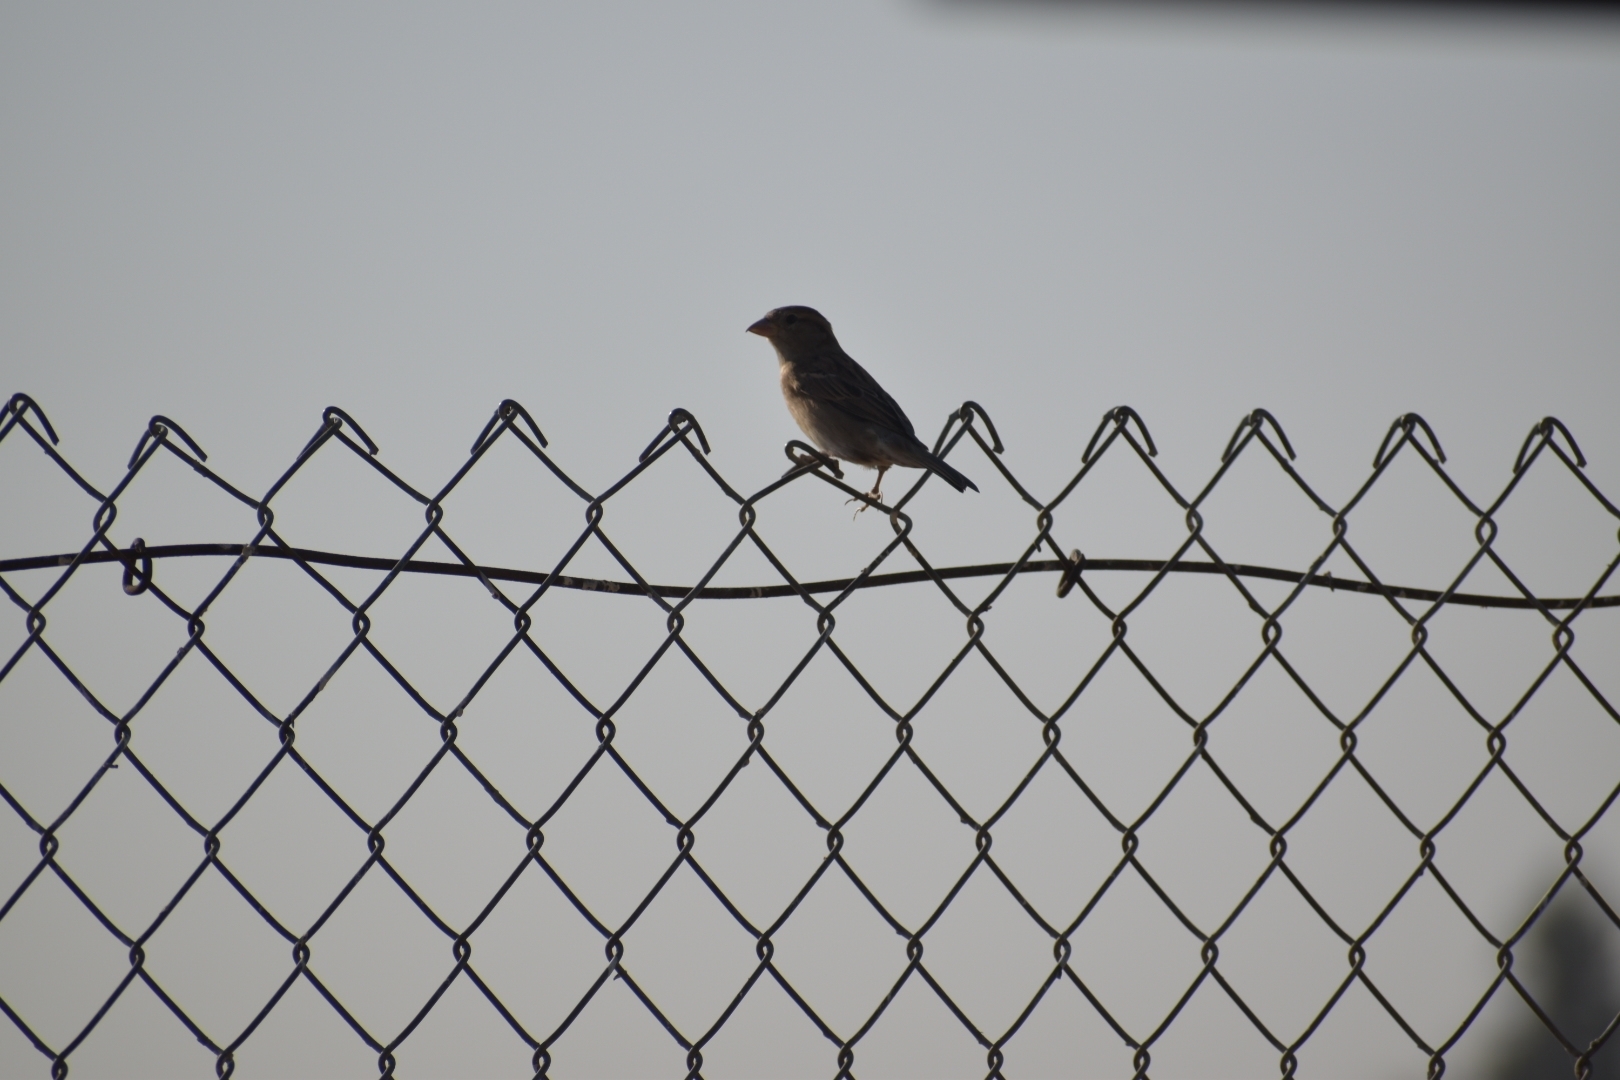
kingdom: Animalia
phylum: Chordata
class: Aves
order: Passeriformes
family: Passeridae
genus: Passer
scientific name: Passer domesticus
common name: House sparrow
